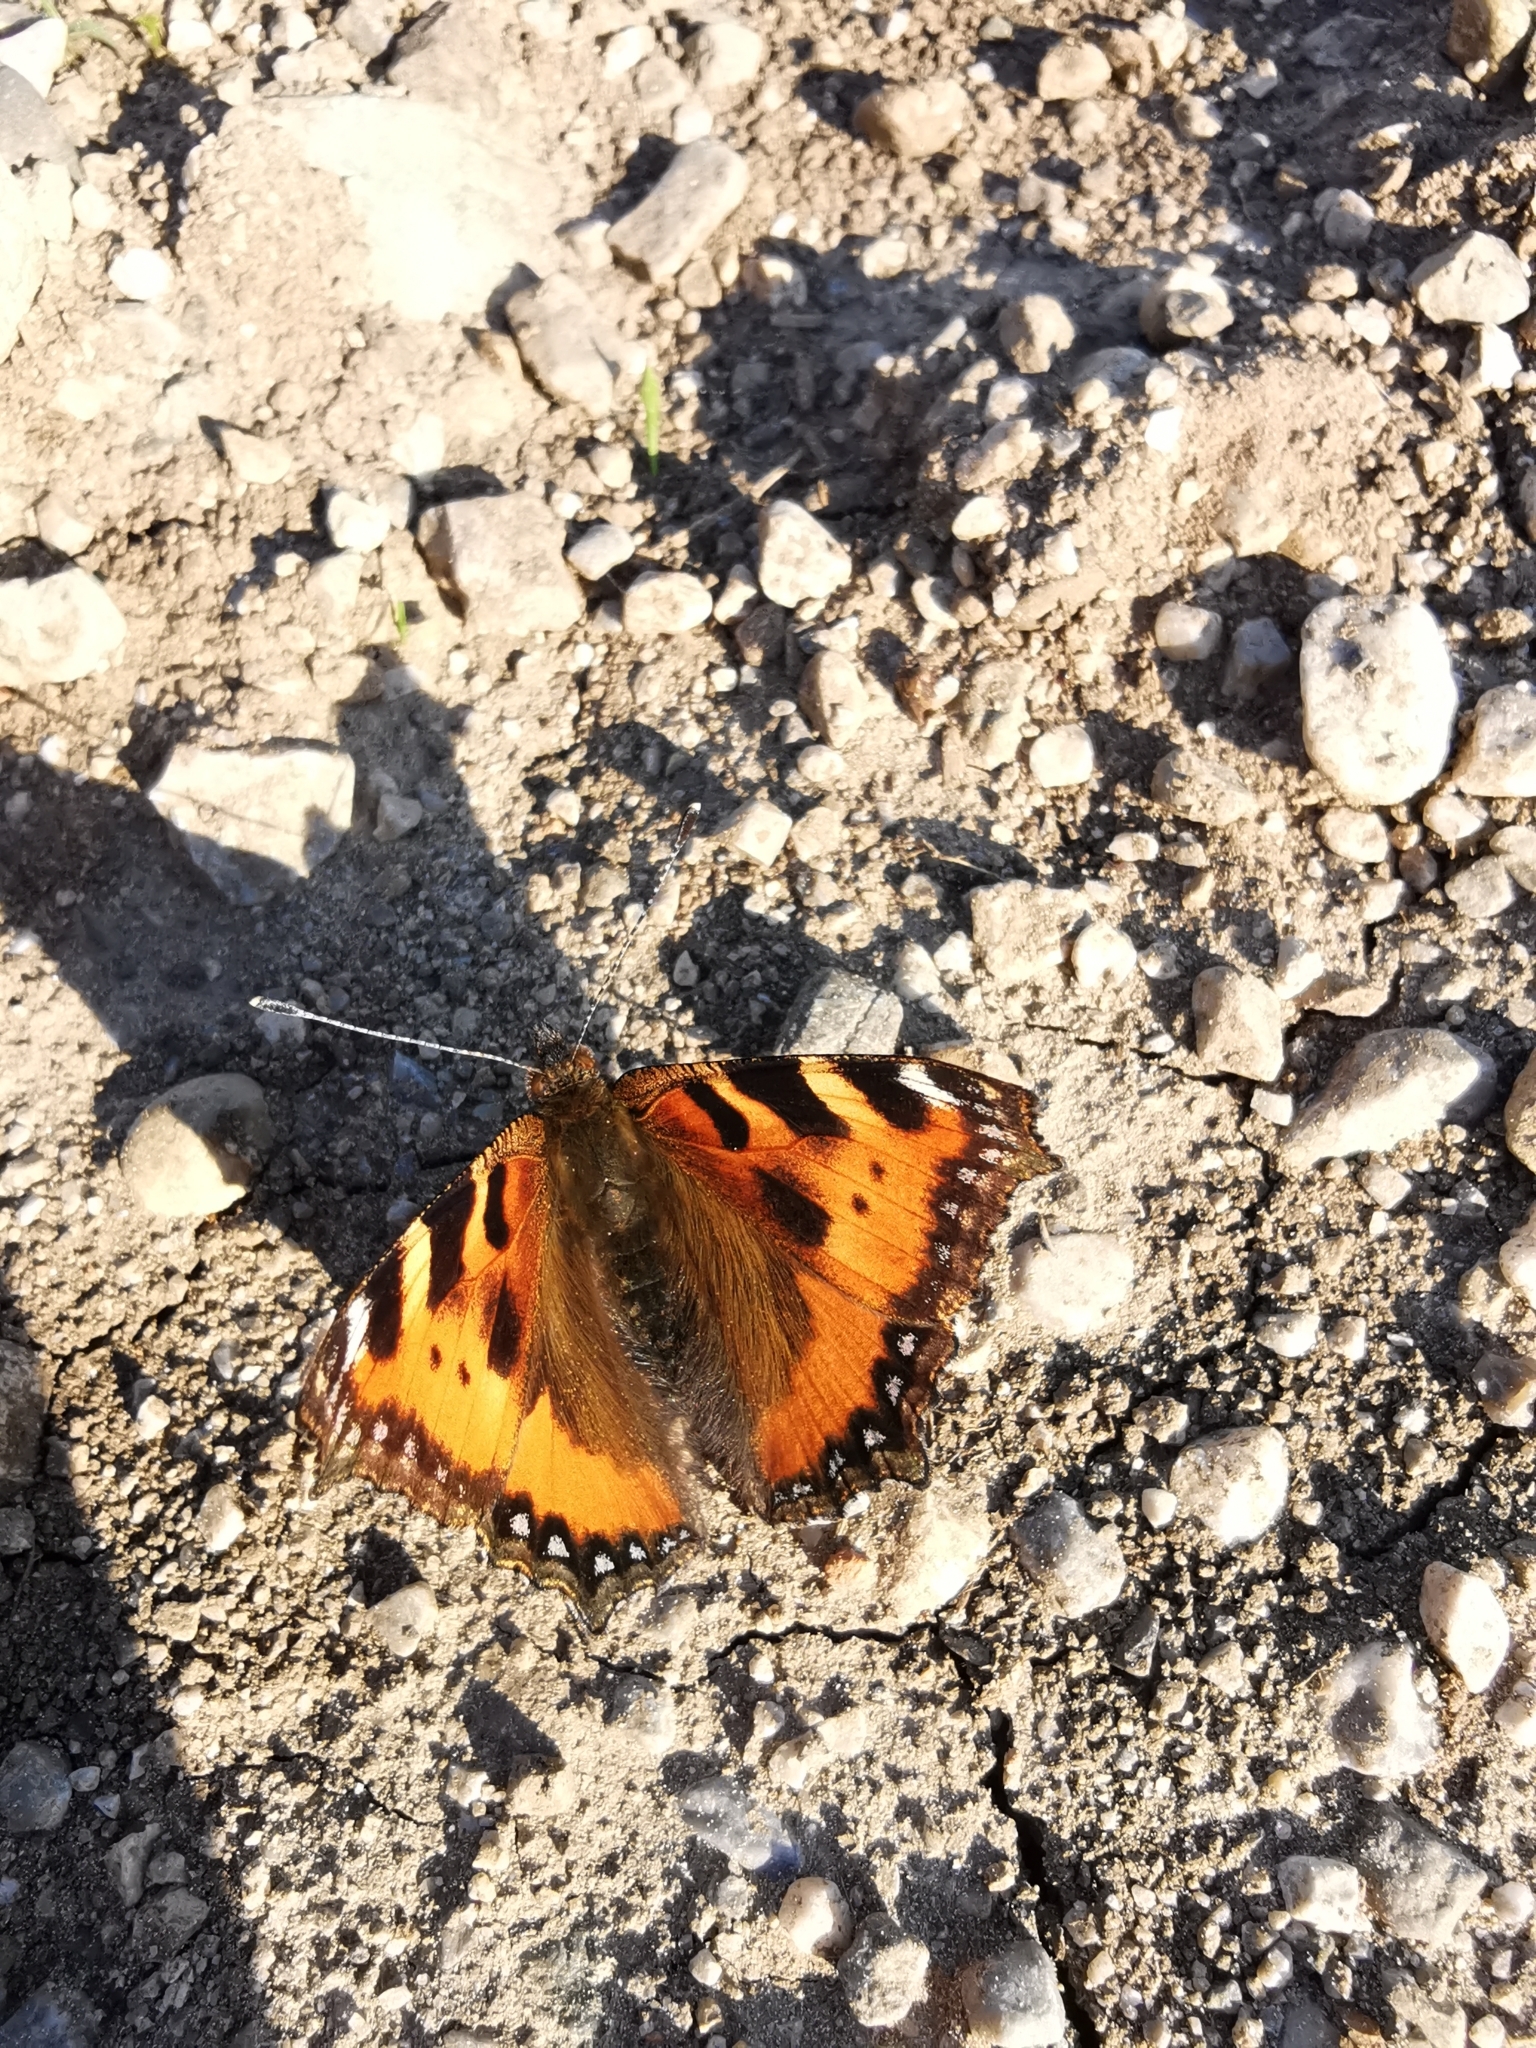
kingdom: Animalia
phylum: Arthropoda
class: Insecta
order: Lepidoptera
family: Nymphalidae
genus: Aglais
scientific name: Aglais urticae
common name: Small tortoiseshell
